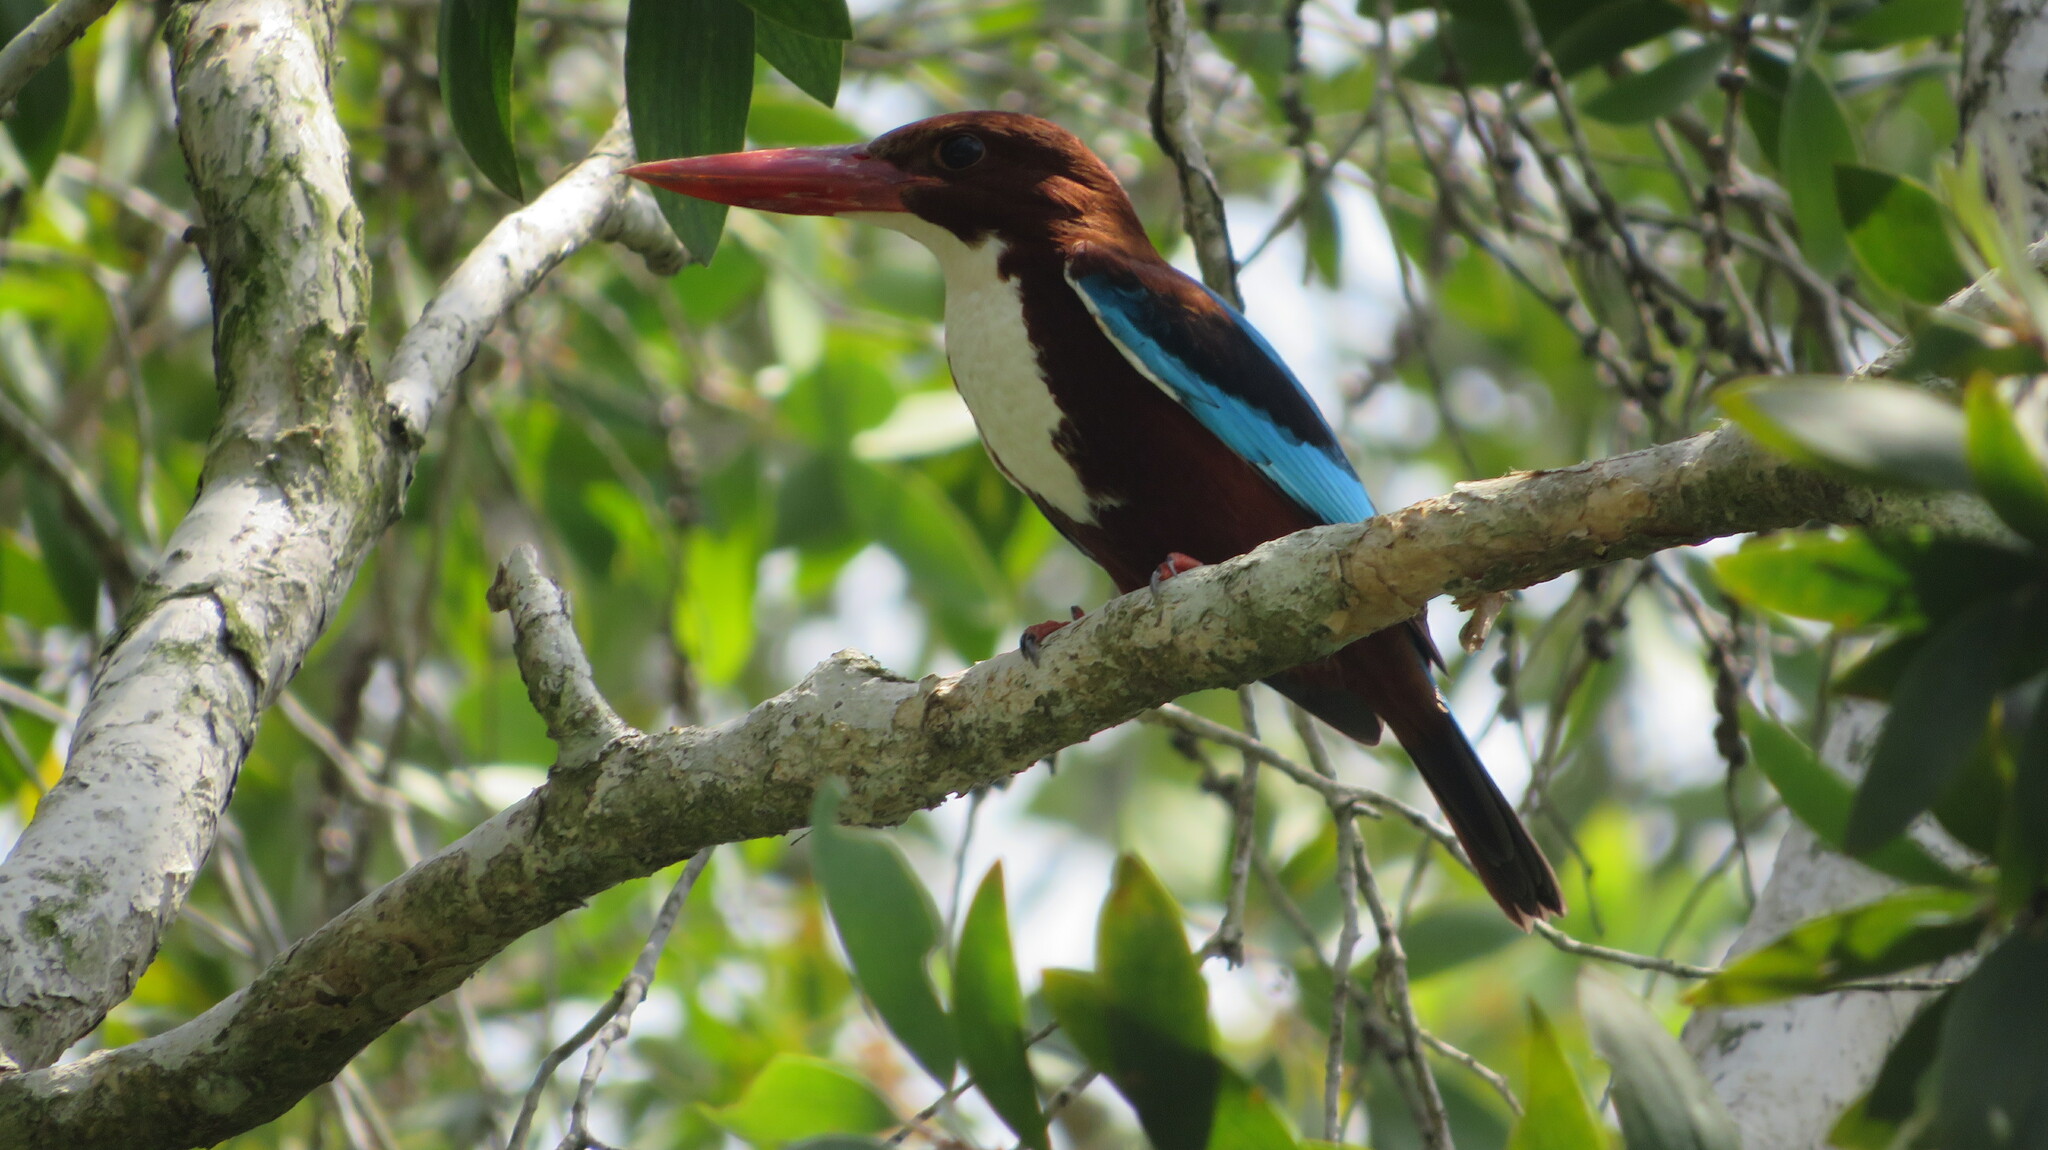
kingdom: Animalia
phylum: Chordata
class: Aves
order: Coraciiformes
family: Alcedinidae
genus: Halcyon
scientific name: Halcyon smyrnensis
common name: White-throated kingfisher
